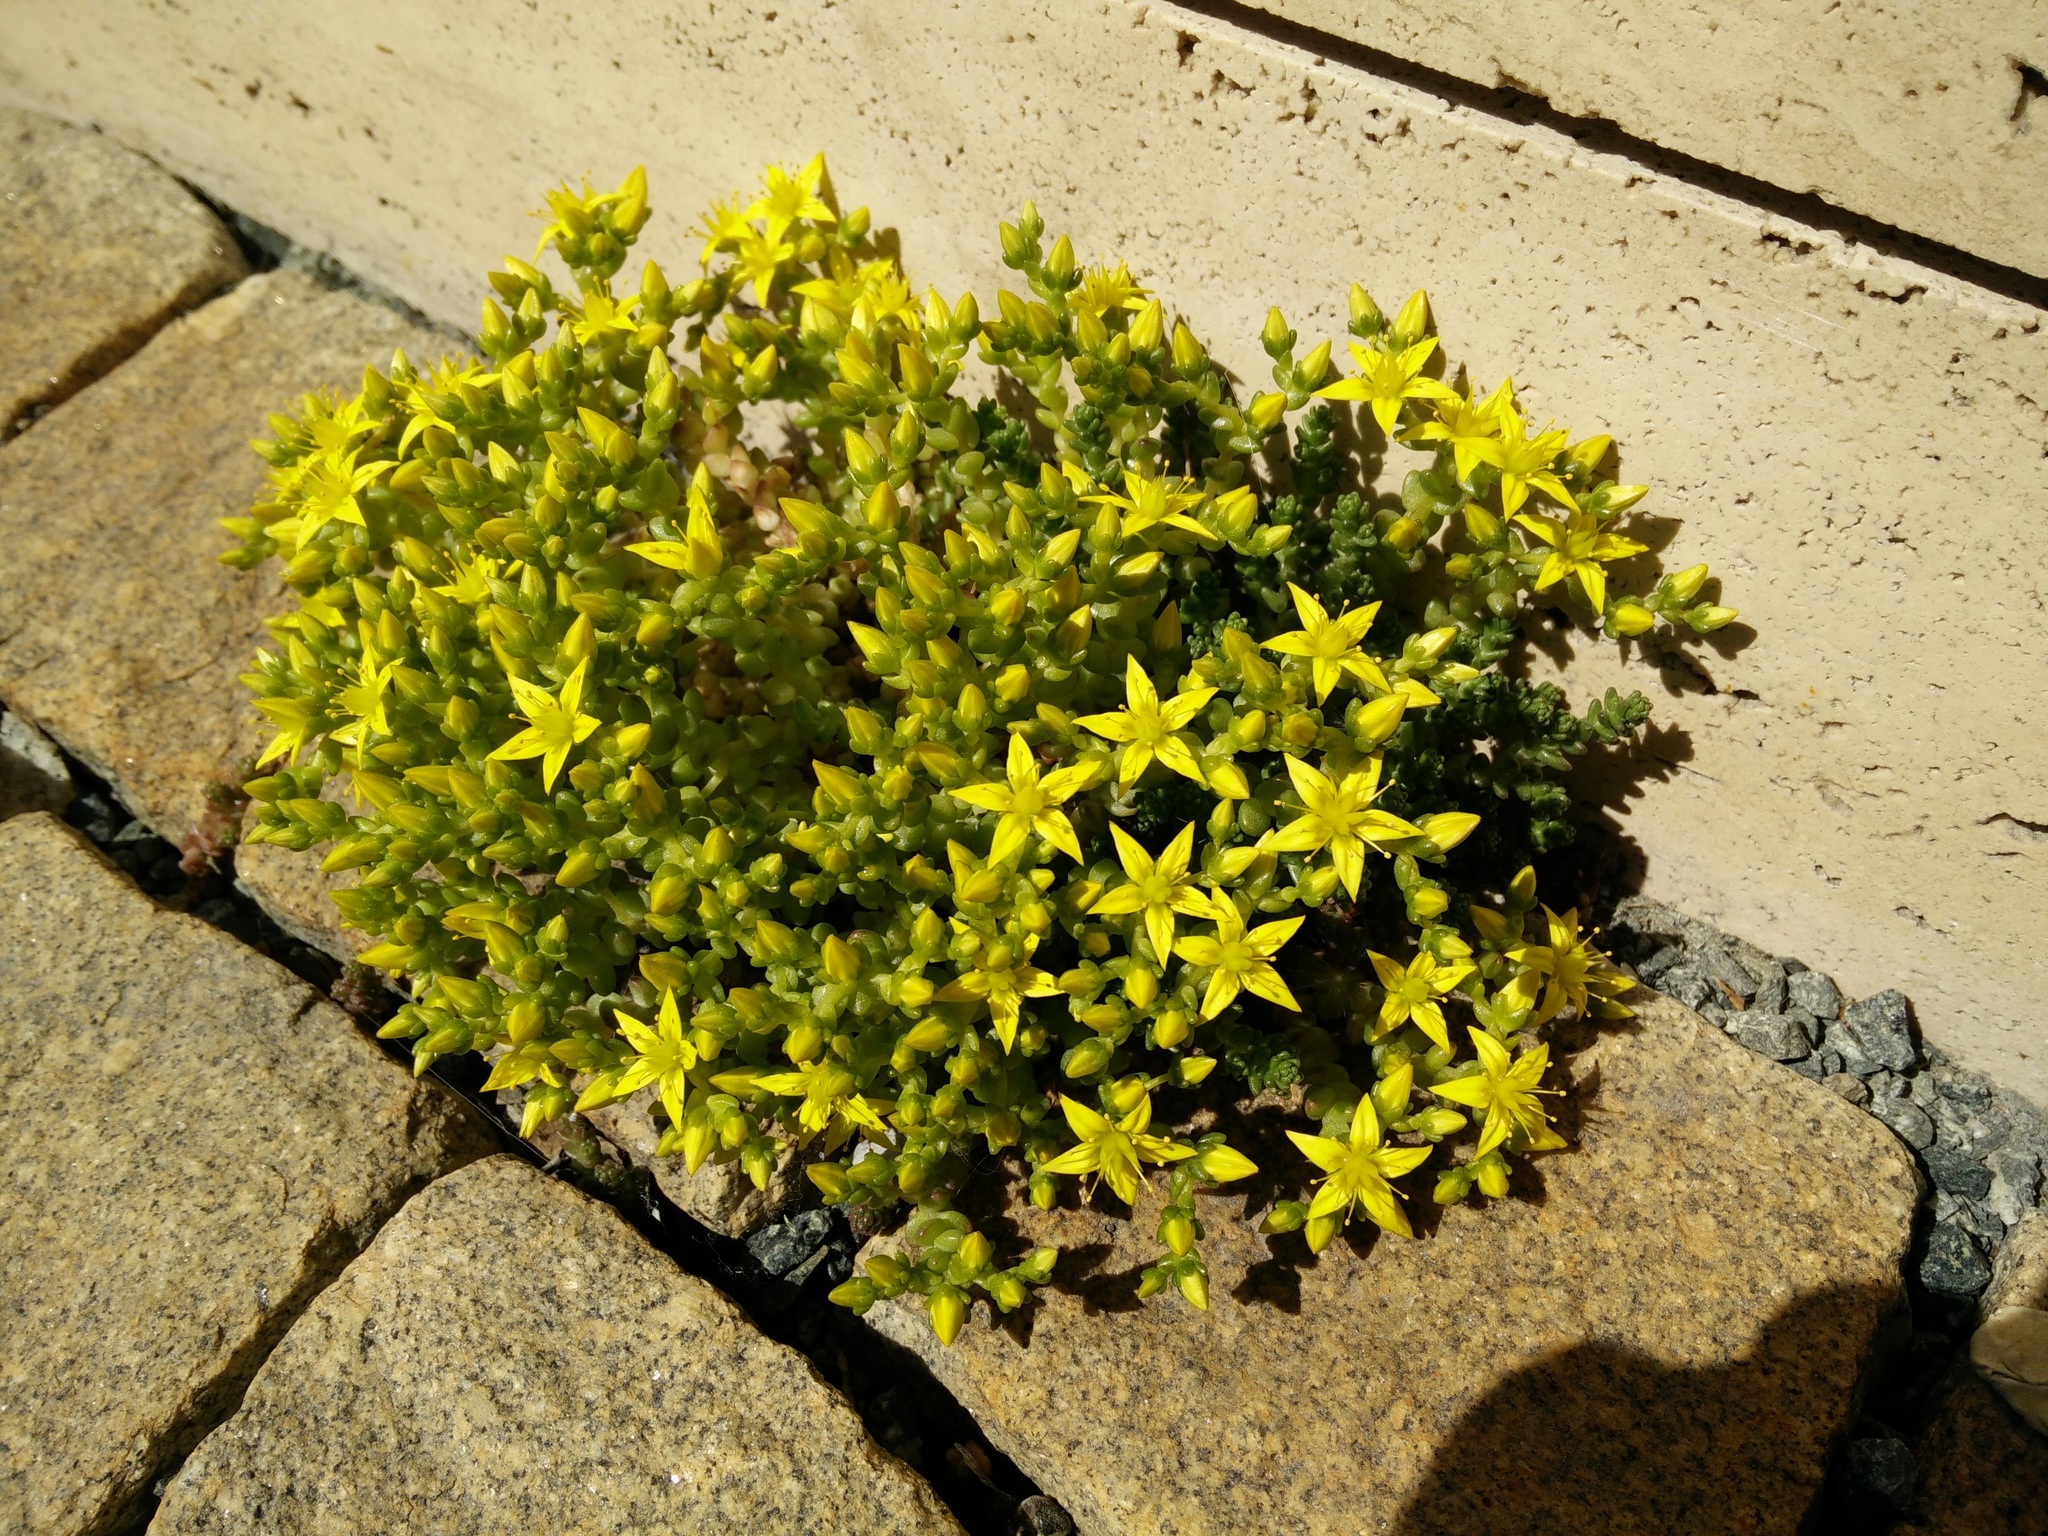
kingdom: Plantae
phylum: Tracheophyta
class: Magnoliopsida
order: Saxifragales
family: Crassulaceae
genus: Sedum
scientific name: Sedum acre
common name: Biting stonecrop
